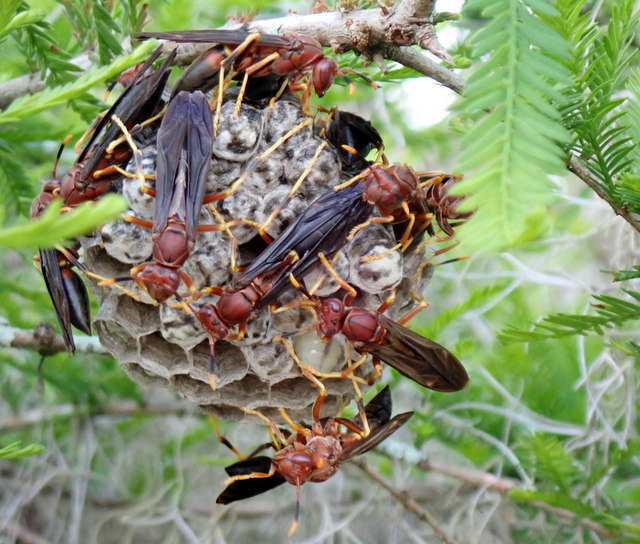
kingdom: Animalia
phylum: Arthropoda
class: Insecta
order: Hymenoptera
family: Eumenidae
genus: Polistes
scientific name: Polistes annularis
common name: Ringed paper wasp
